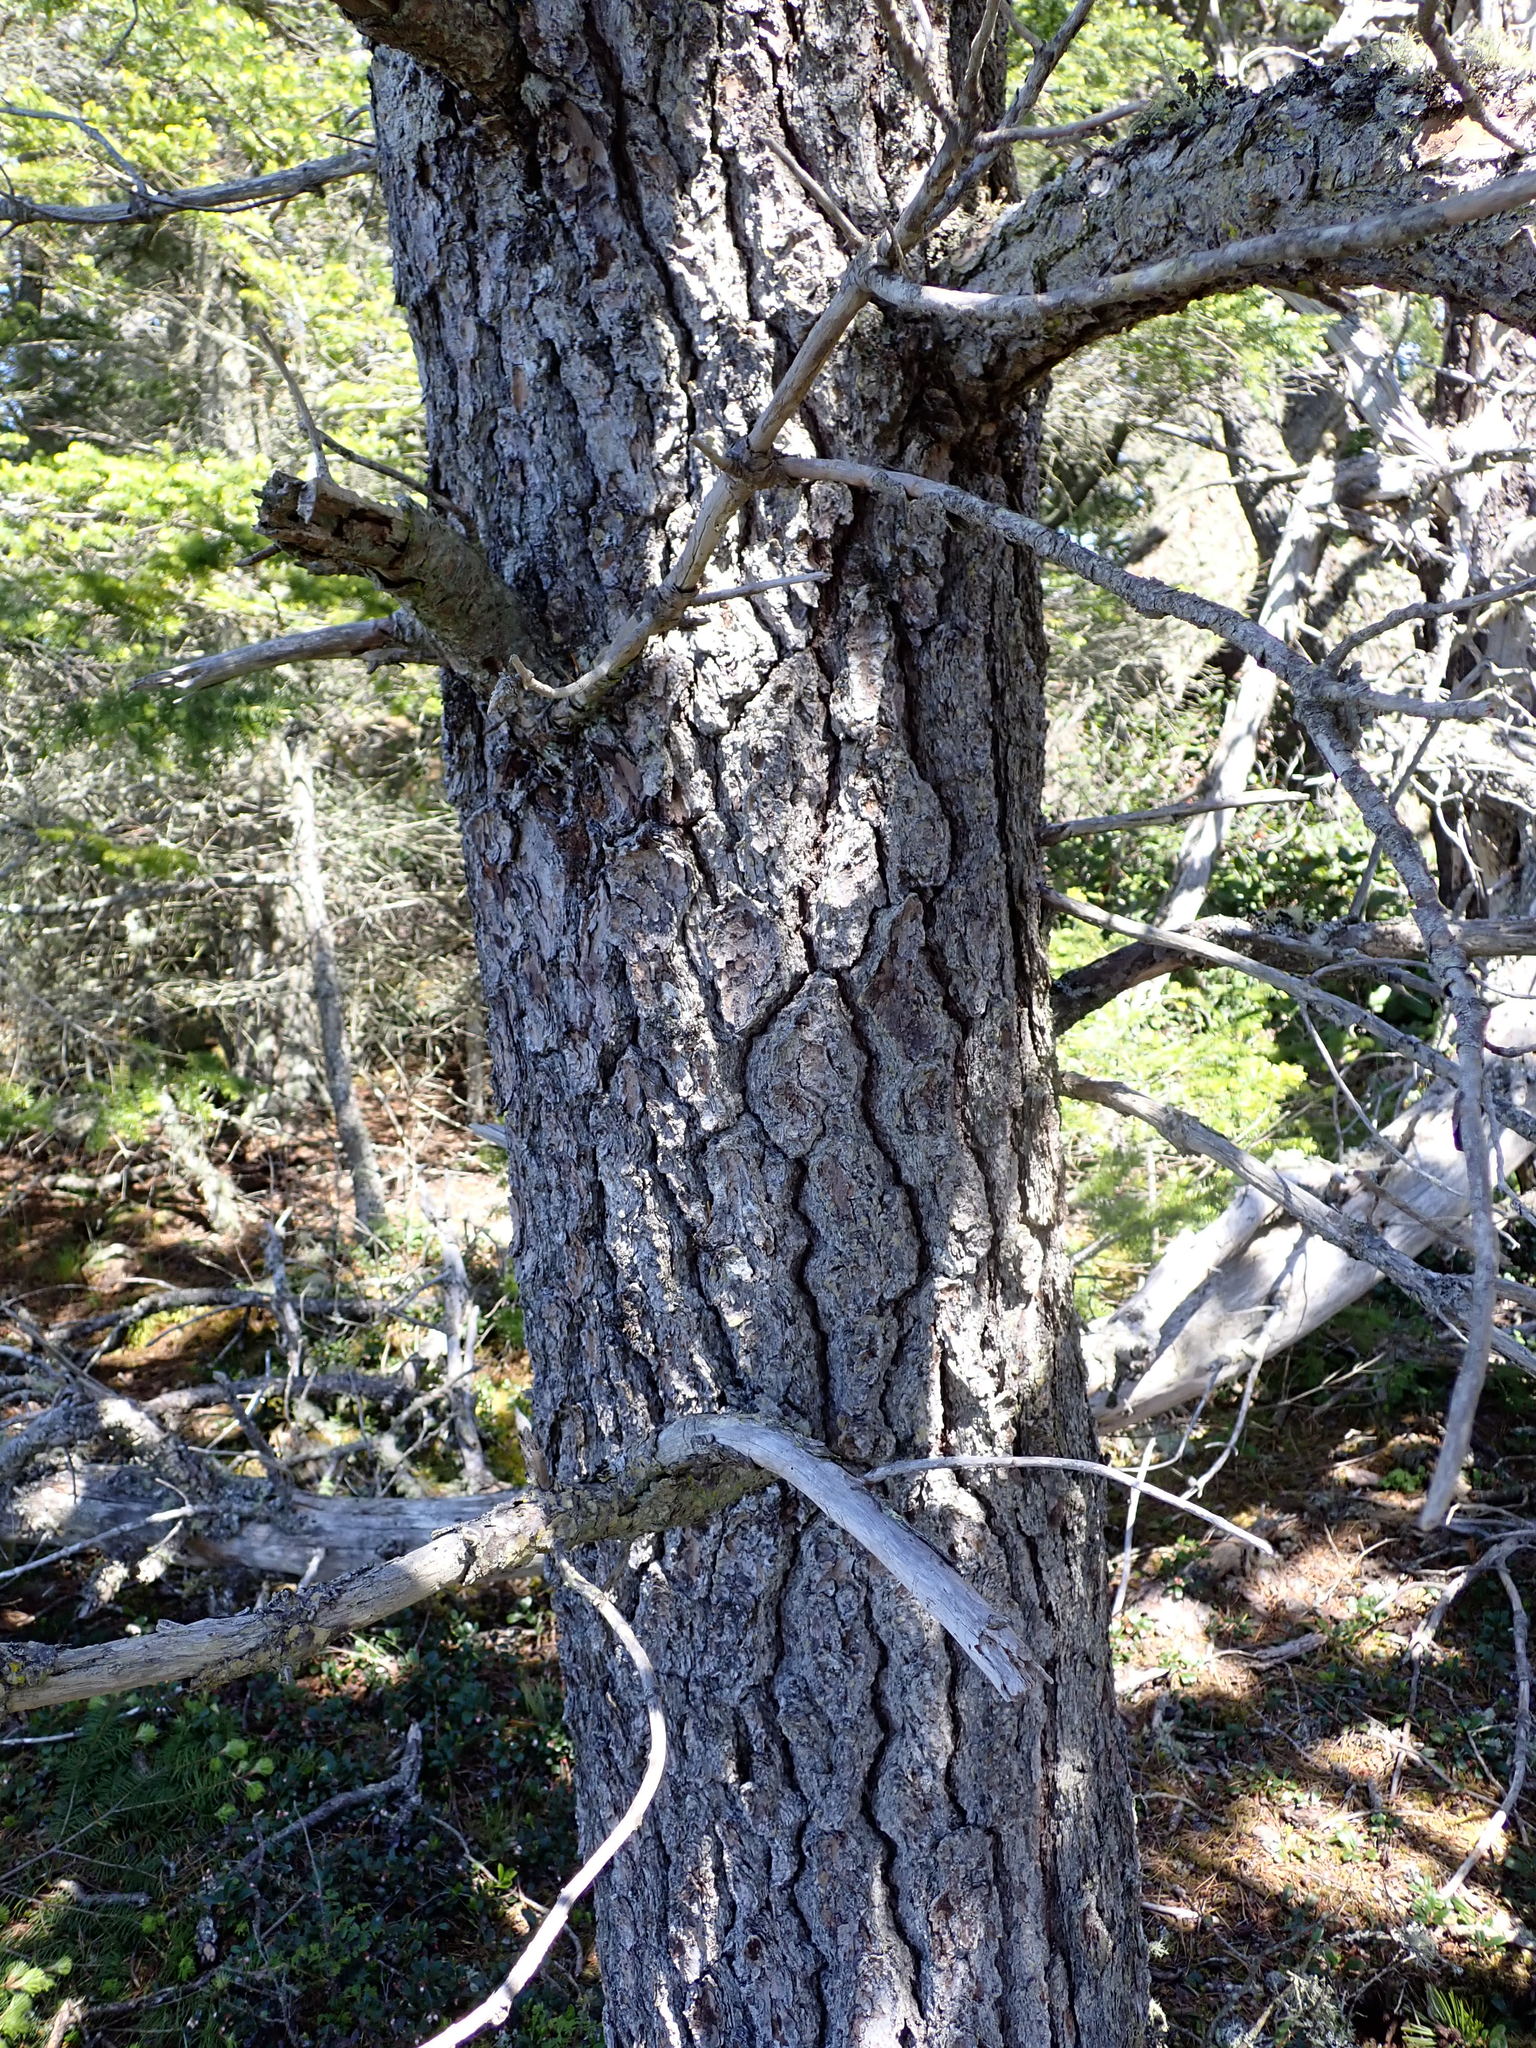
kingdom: Plantae
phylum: Tracheophyta
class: Pinopsida
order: Pinales
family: Pinaceae
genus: Pinus
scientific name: Pinus contorta
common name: Lodgepole pine
